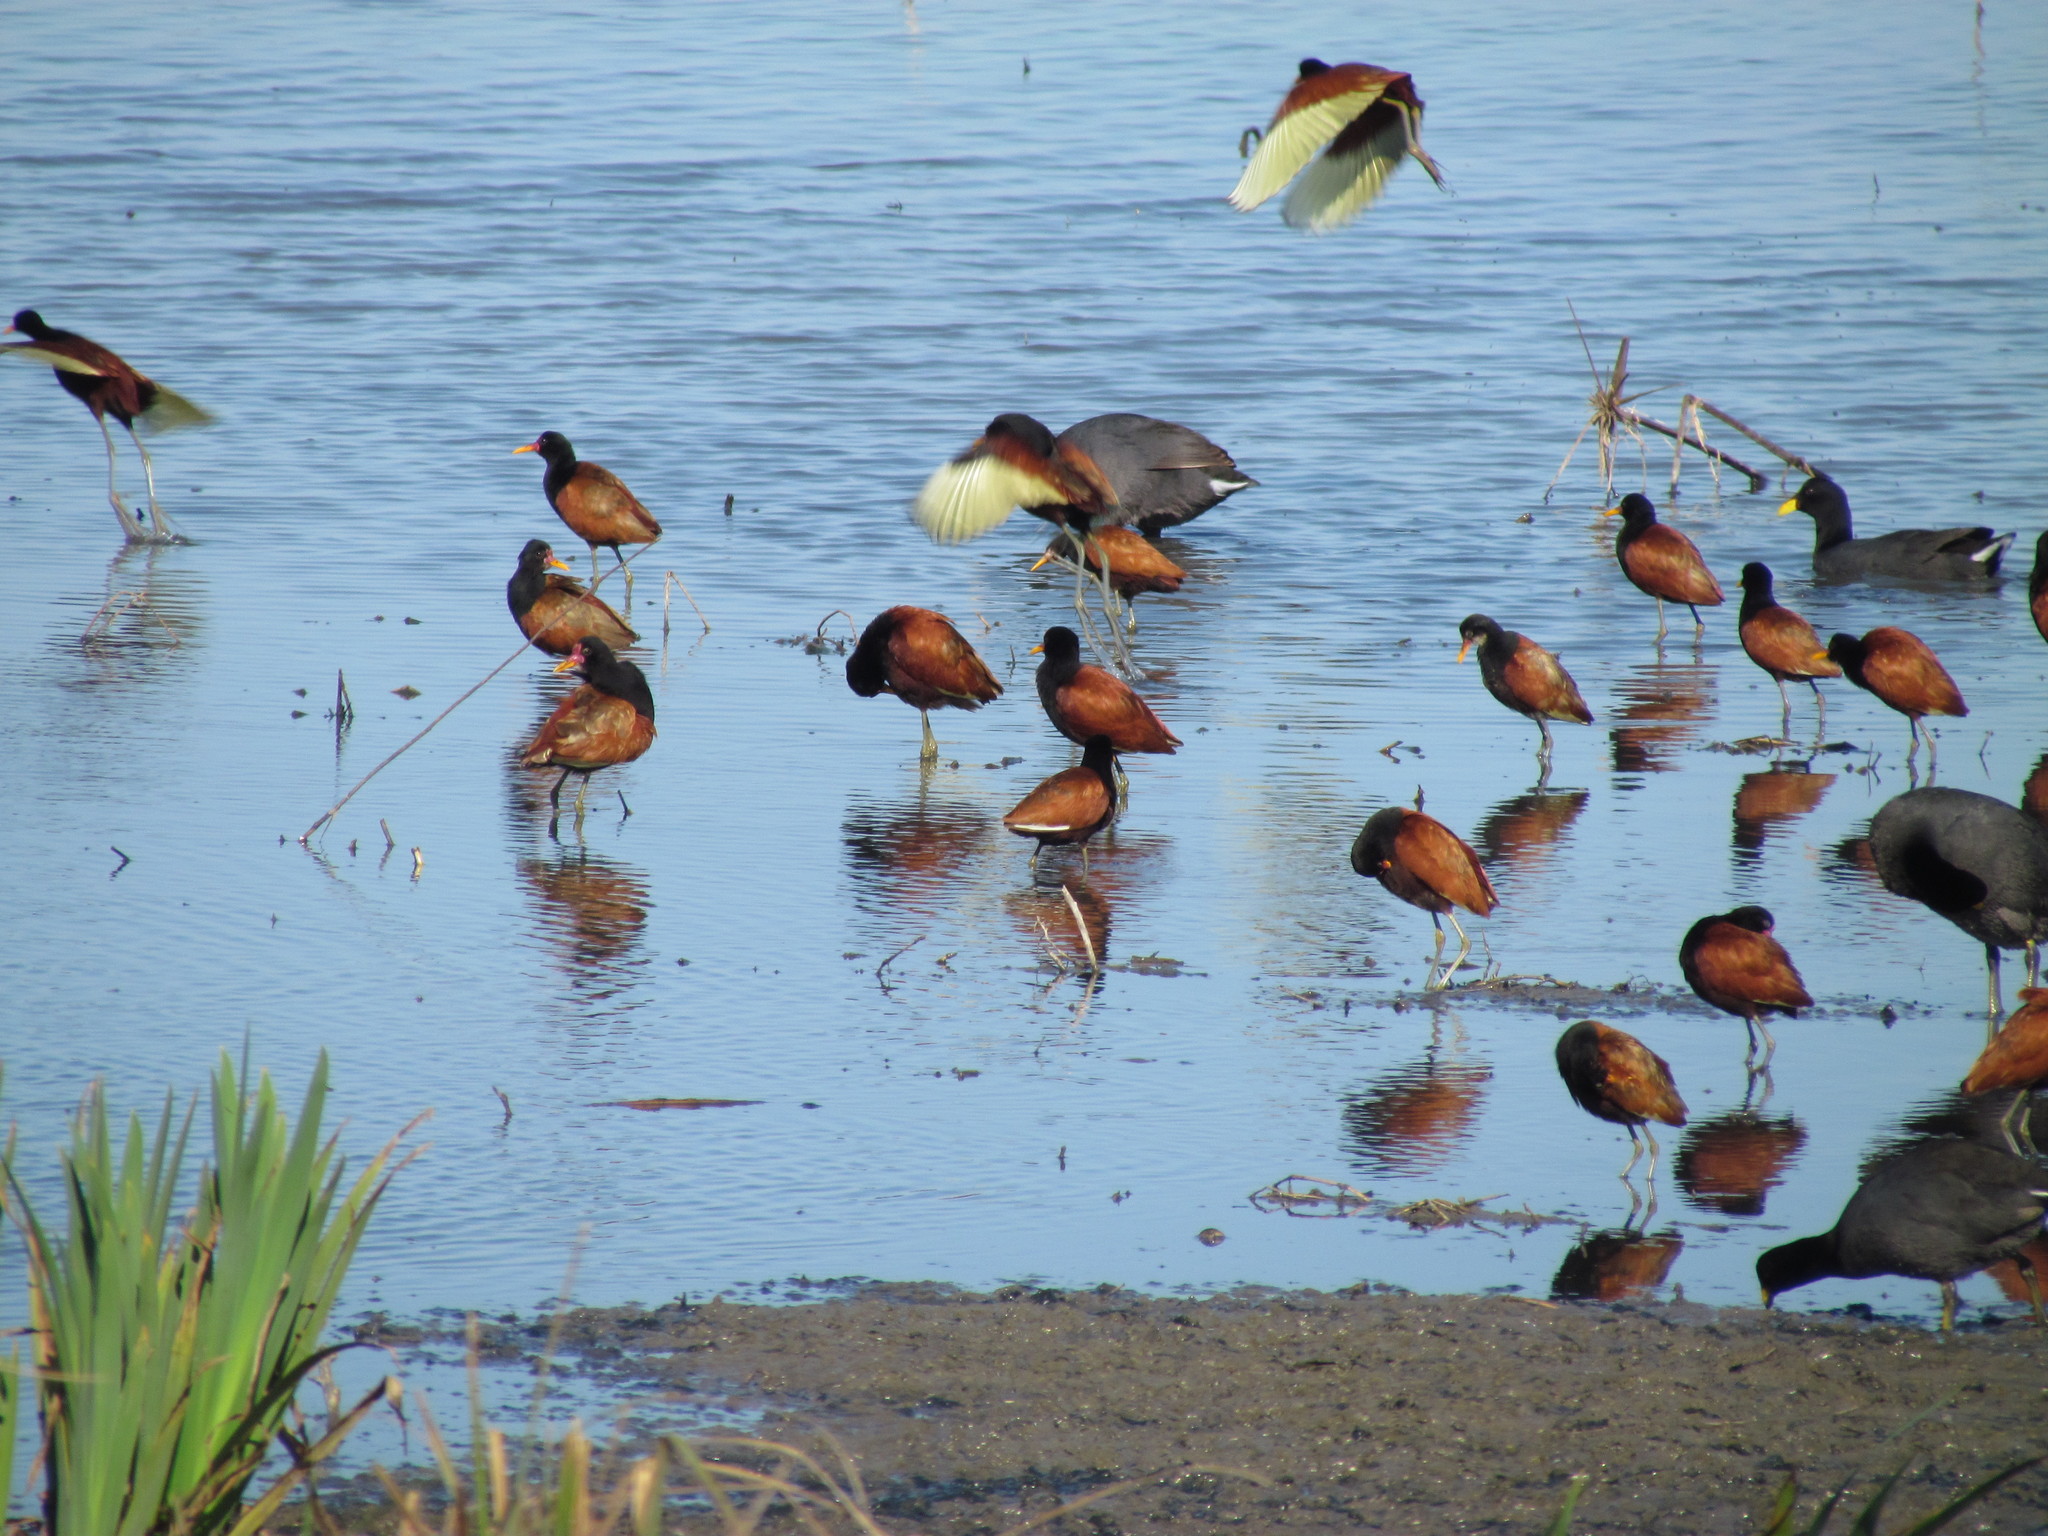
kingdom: Animalia
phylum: Chordata
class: Aves
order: Charadriiformes
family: Jacanidae
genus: Jacana
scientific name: Jacana jacana
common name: Wattled jacana
